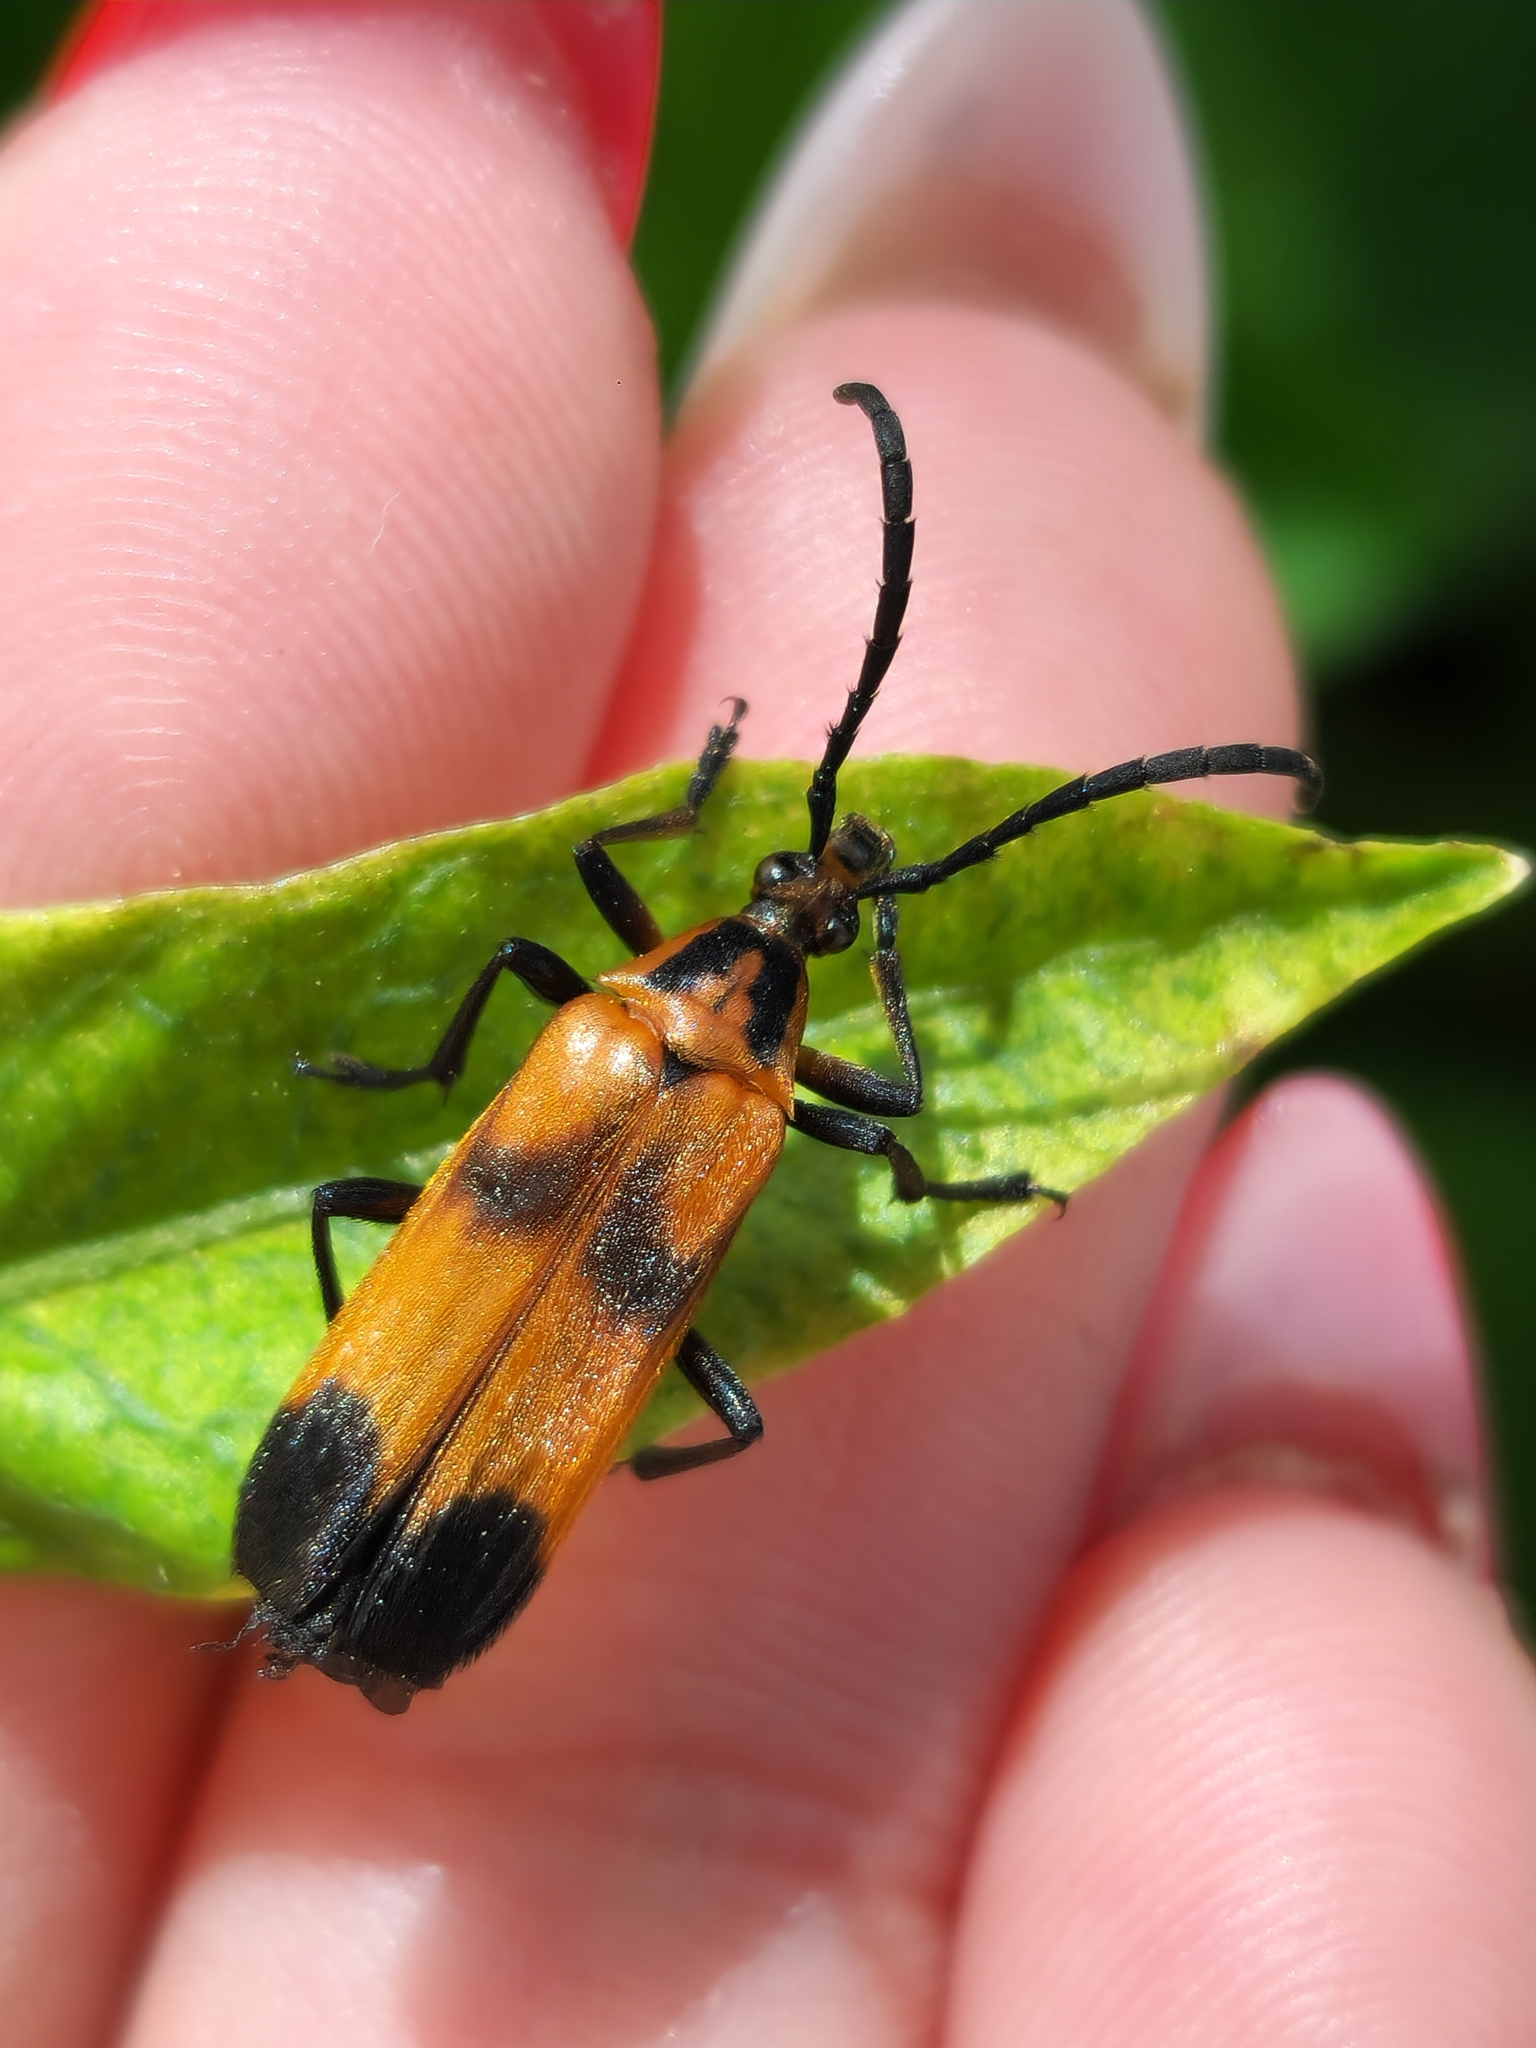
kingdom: Animalia
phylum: Arthropoda
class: Insecta
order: Coleoptera
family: Cerambycidae
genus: Euryptera
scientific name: Euryptera latipennis
